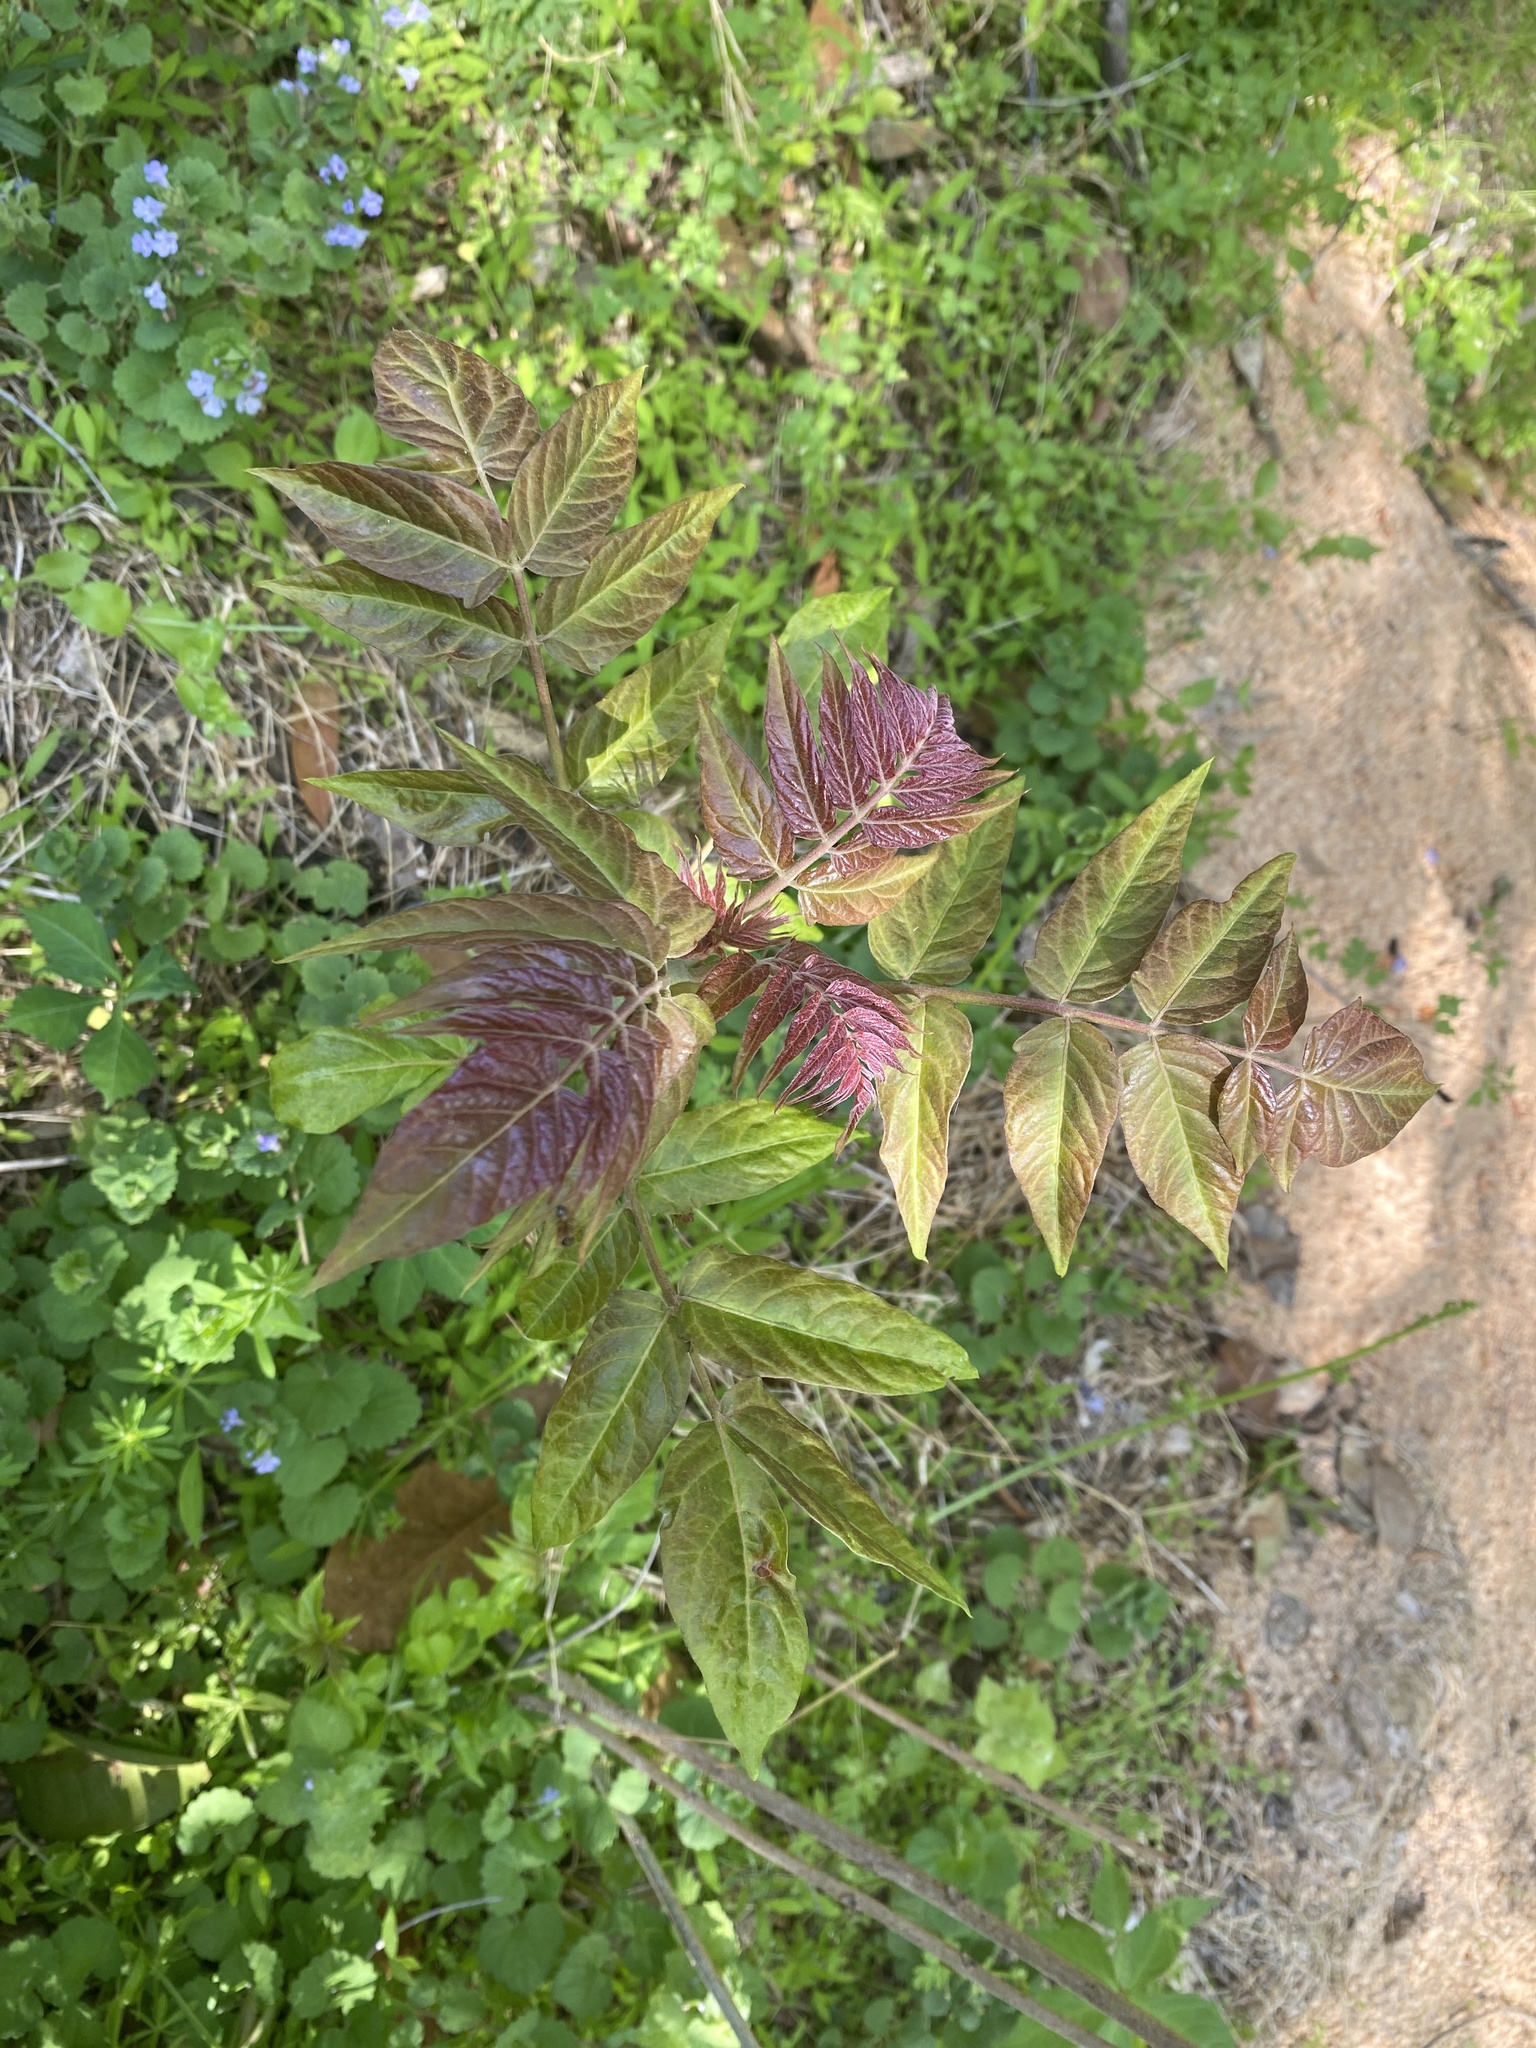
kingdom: Plantae
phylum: Tracheophyta
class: Magnoliopsida
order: Sapindales
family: Simaroubaceae
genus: Ailanthus
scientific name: Ailanthus altissima
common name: Tree-of-heaven
